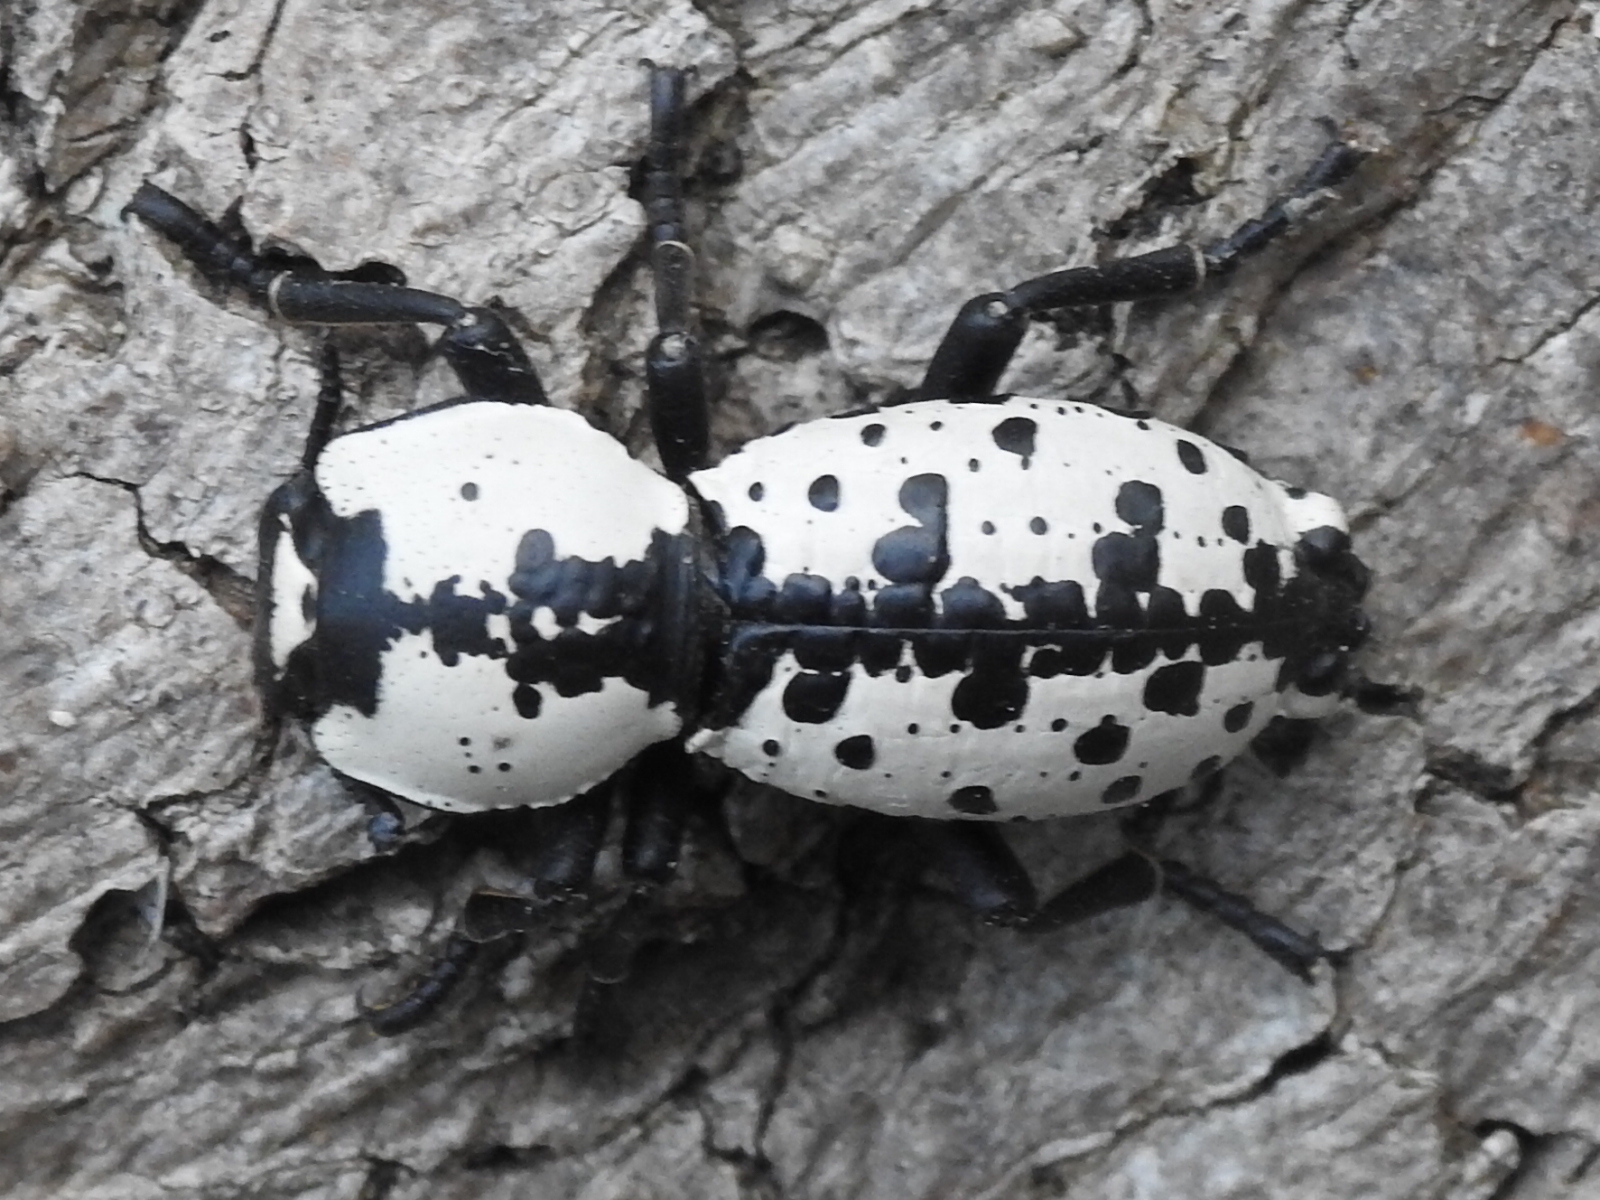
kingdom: Animalia
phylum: Arthropoda
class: Insecta
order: Coleoptera
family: Zopheridae
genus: Zopherus
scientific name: Zopherus nodulosus
